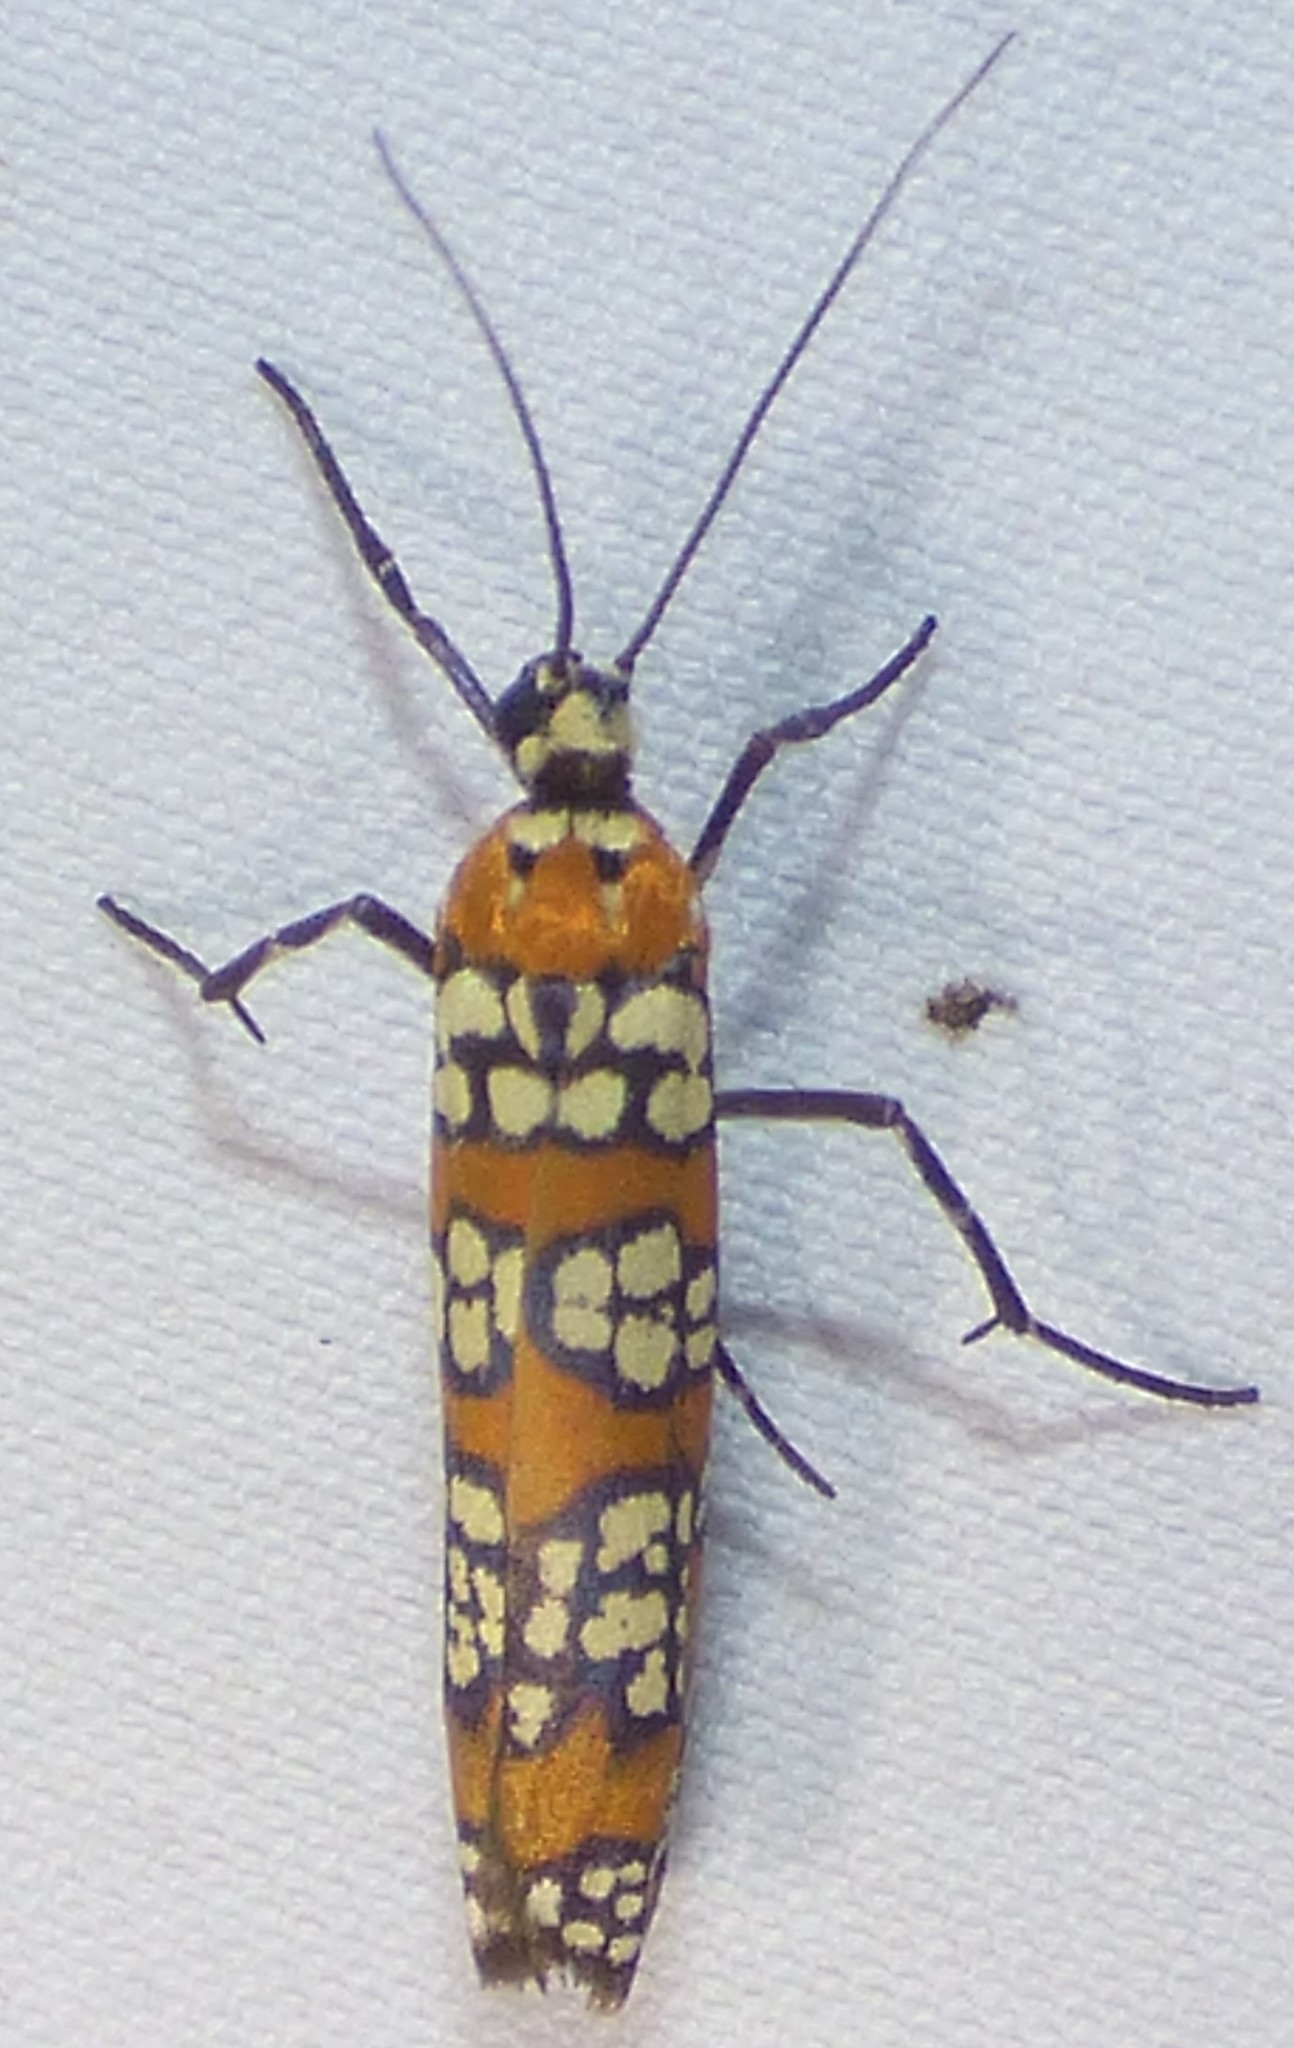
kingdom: Animalia
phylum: Arthropoda
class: Insecta
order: Lepidoptera
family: Attevidae
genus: Atteva
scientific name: Atteva punctella
